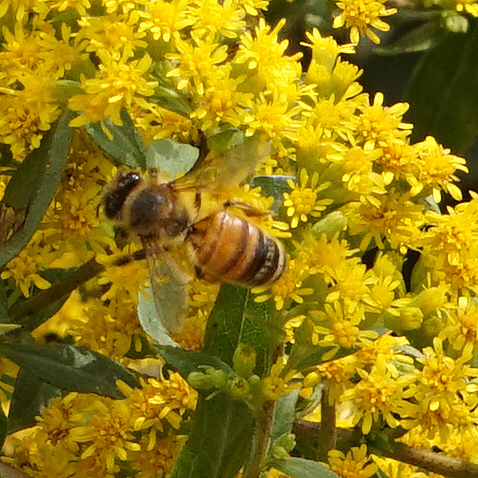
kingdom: Animalia
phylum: Arthropoda
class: Insecta
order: Hymenoptera
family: Apidae
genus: Apis
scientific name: Apis mellifera
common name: Honey bee
